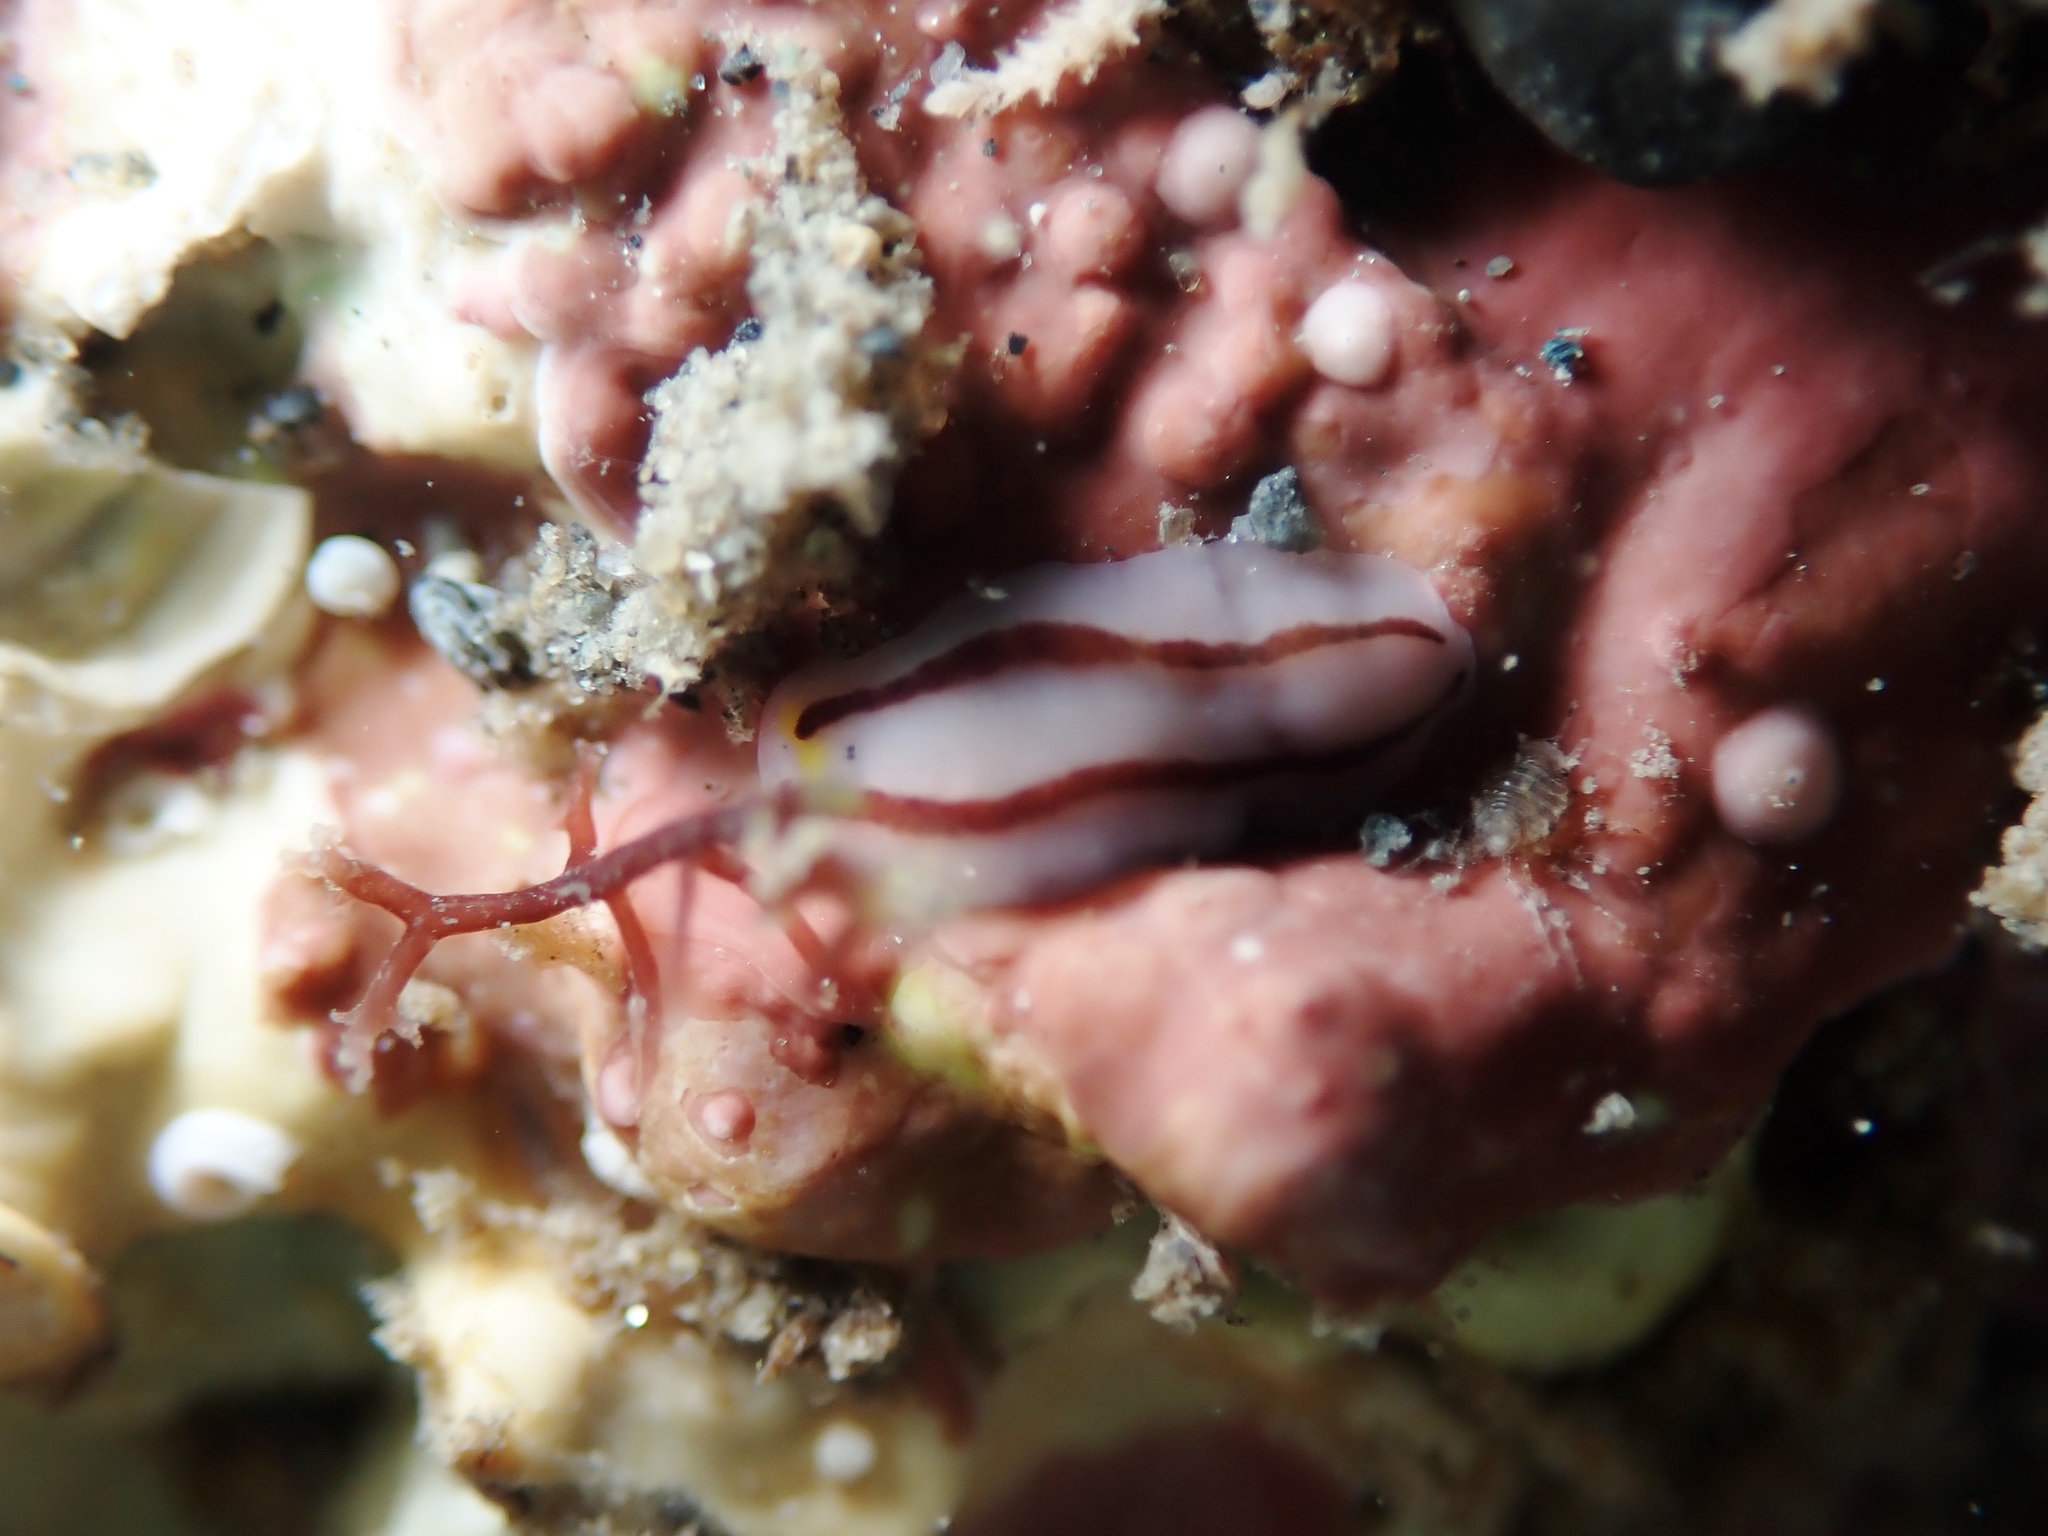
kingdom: Animalia
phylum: Platyhelminthes
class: Turbellaria
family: Chromoplanidae
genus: Chromoplana
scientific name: Chromoplana sirena
